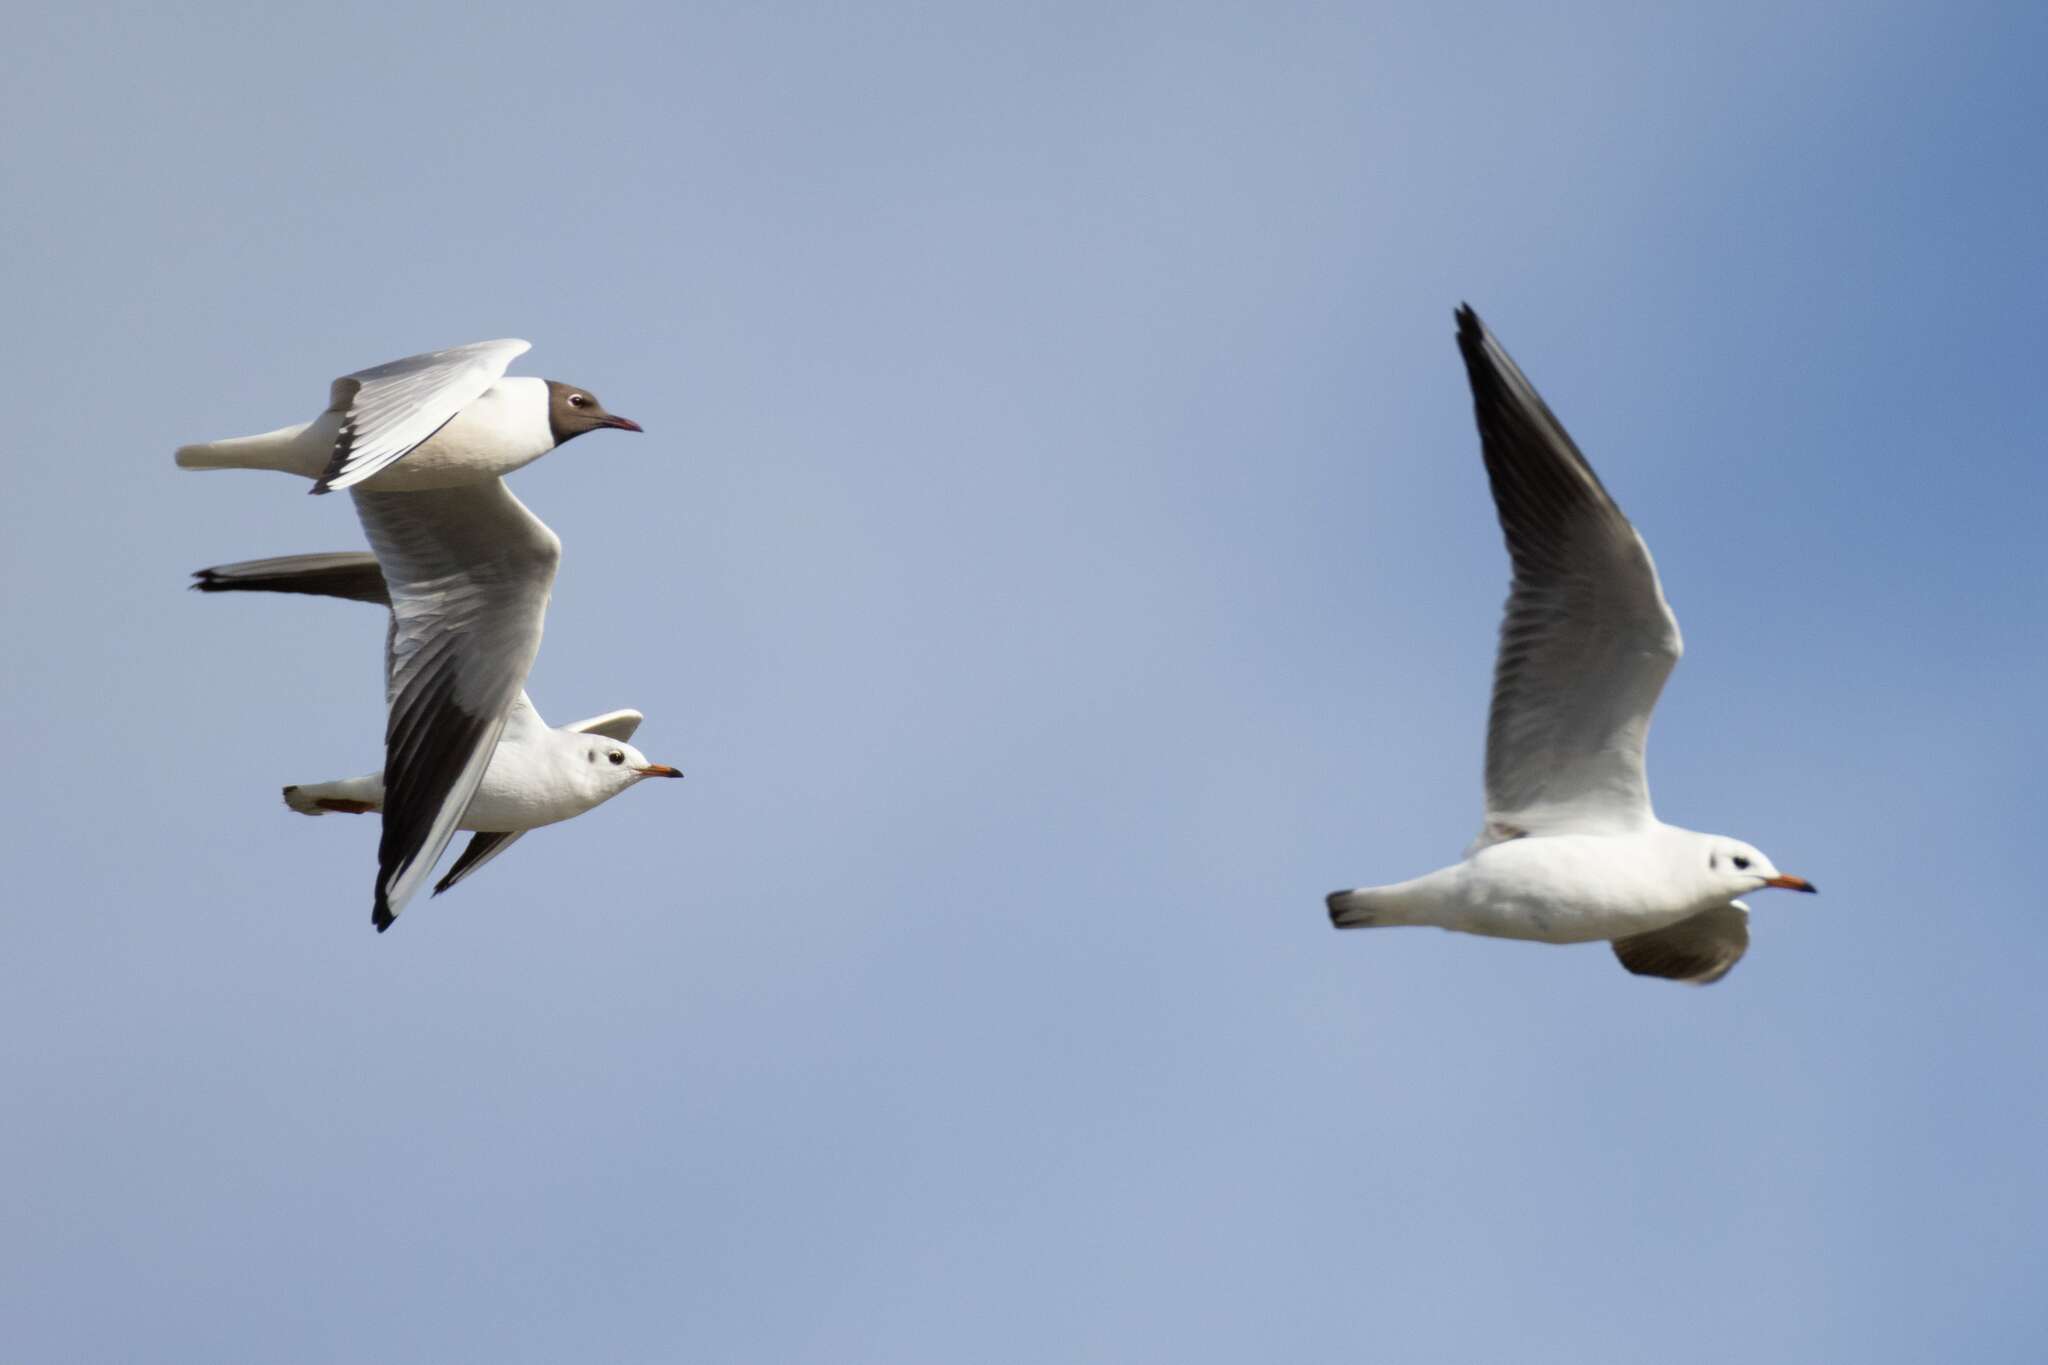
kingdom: Animalia
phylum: Chordata
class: Aves
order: Charadriiformes
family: Laridae
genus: Chroicocephalus
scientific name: Chroicocephalus ridibundus
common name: Black-headed gull
